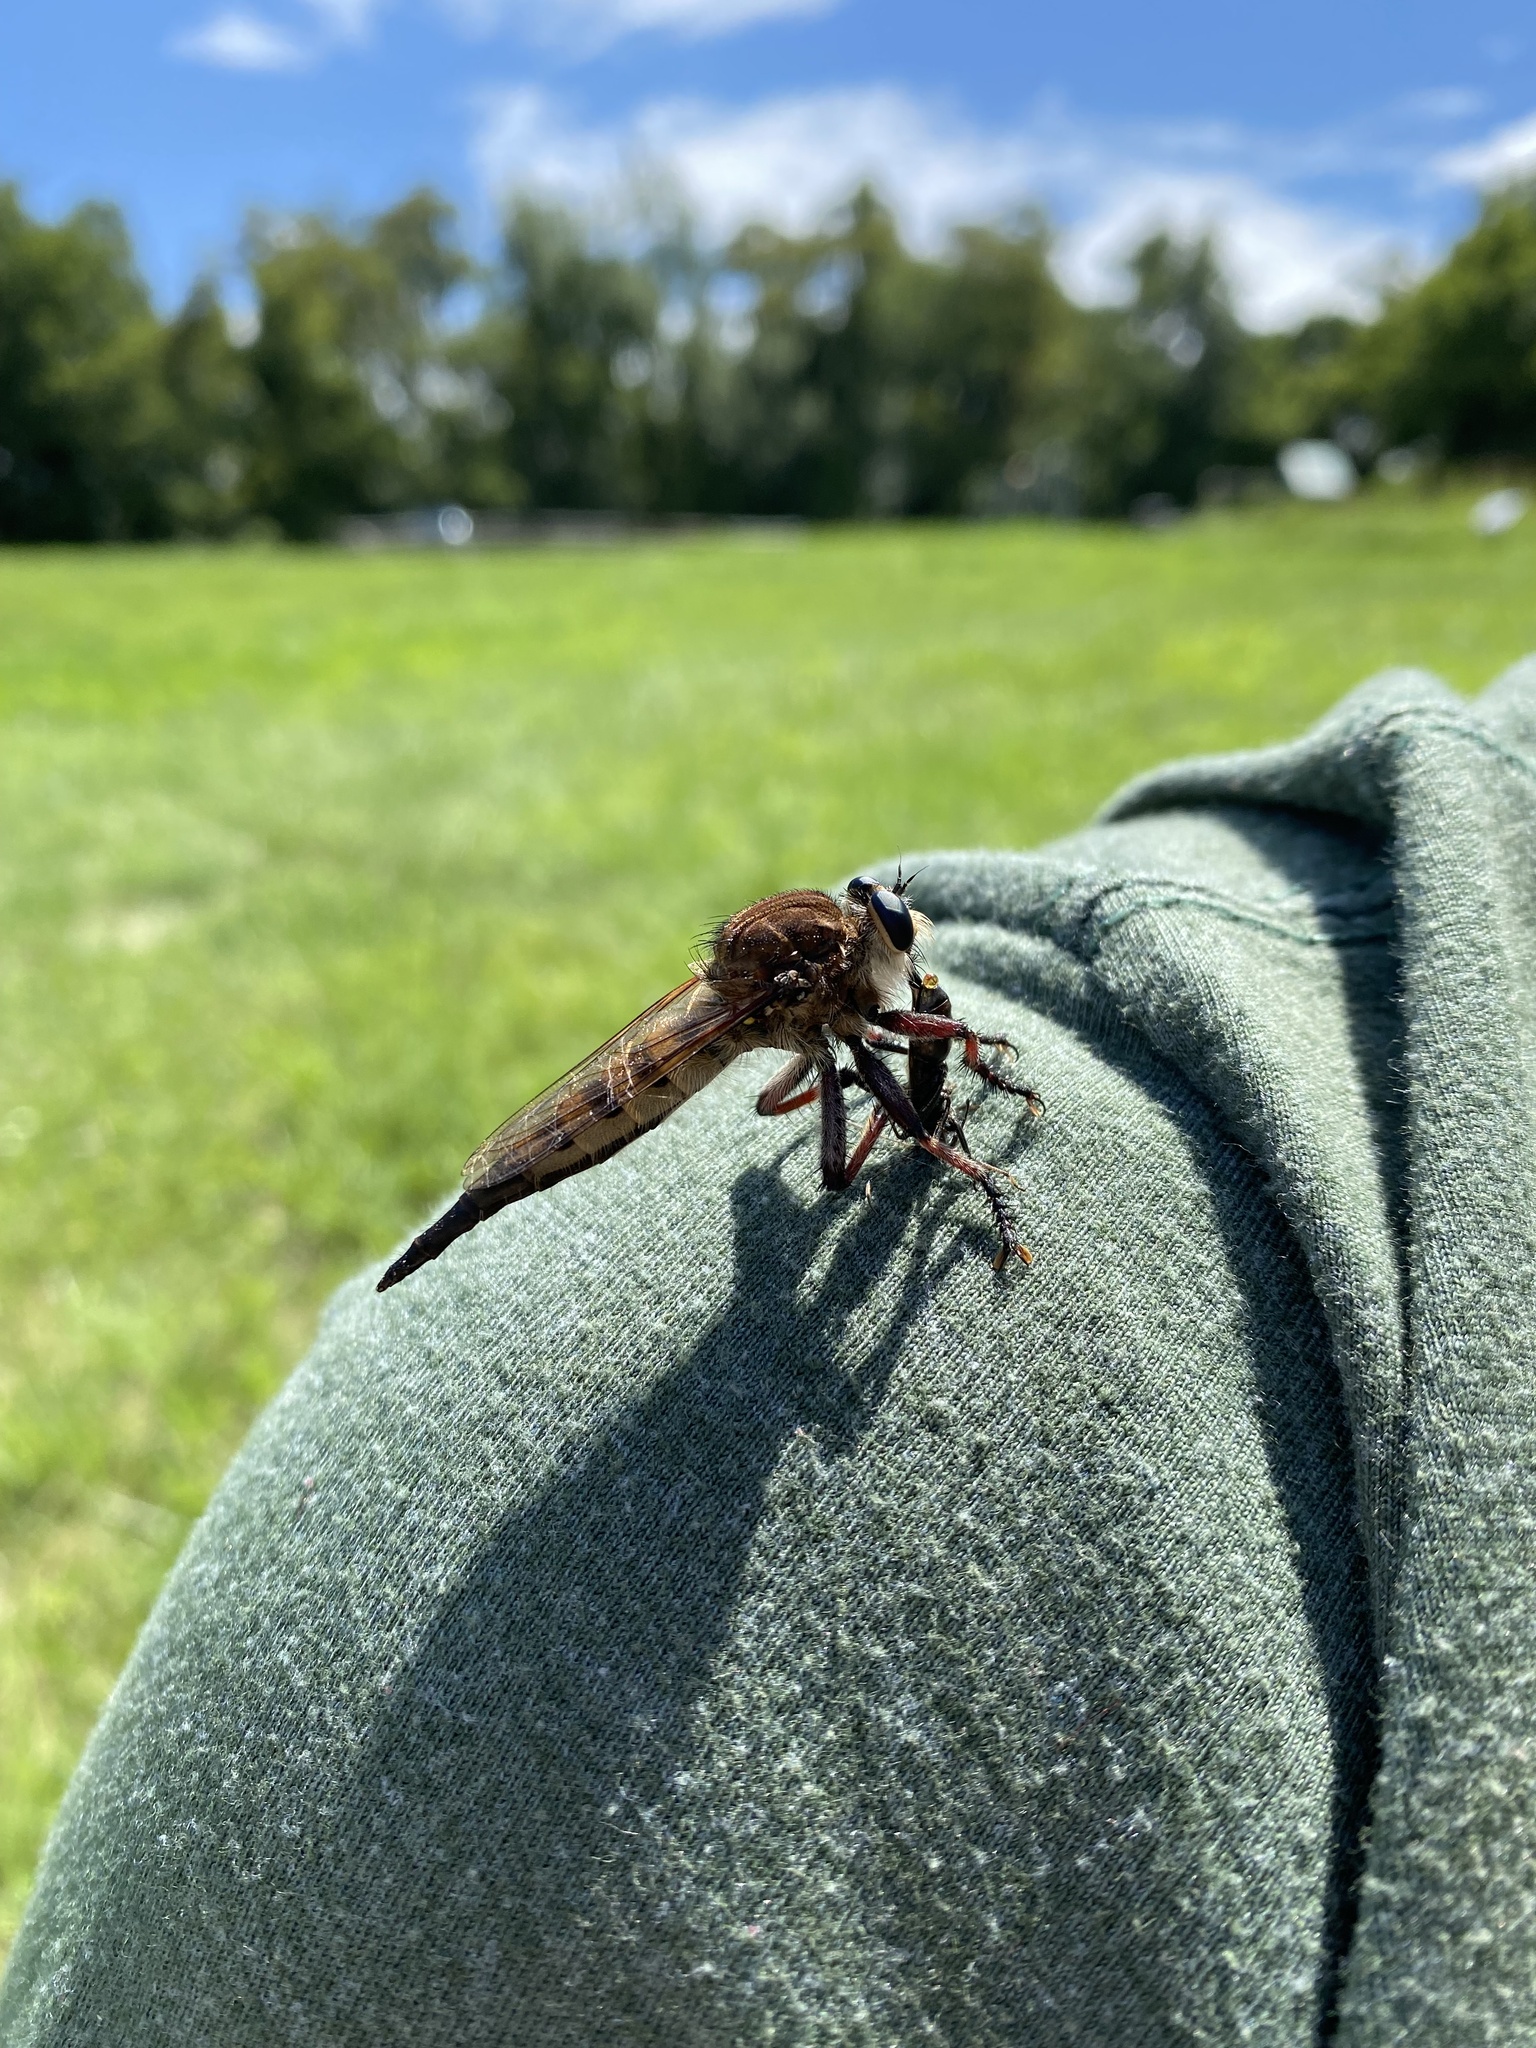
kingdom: Animalia
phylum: Arthropoda
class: Insecta
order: Diptera
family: Asilidae
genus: Promachus
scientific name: Promachus hinei
